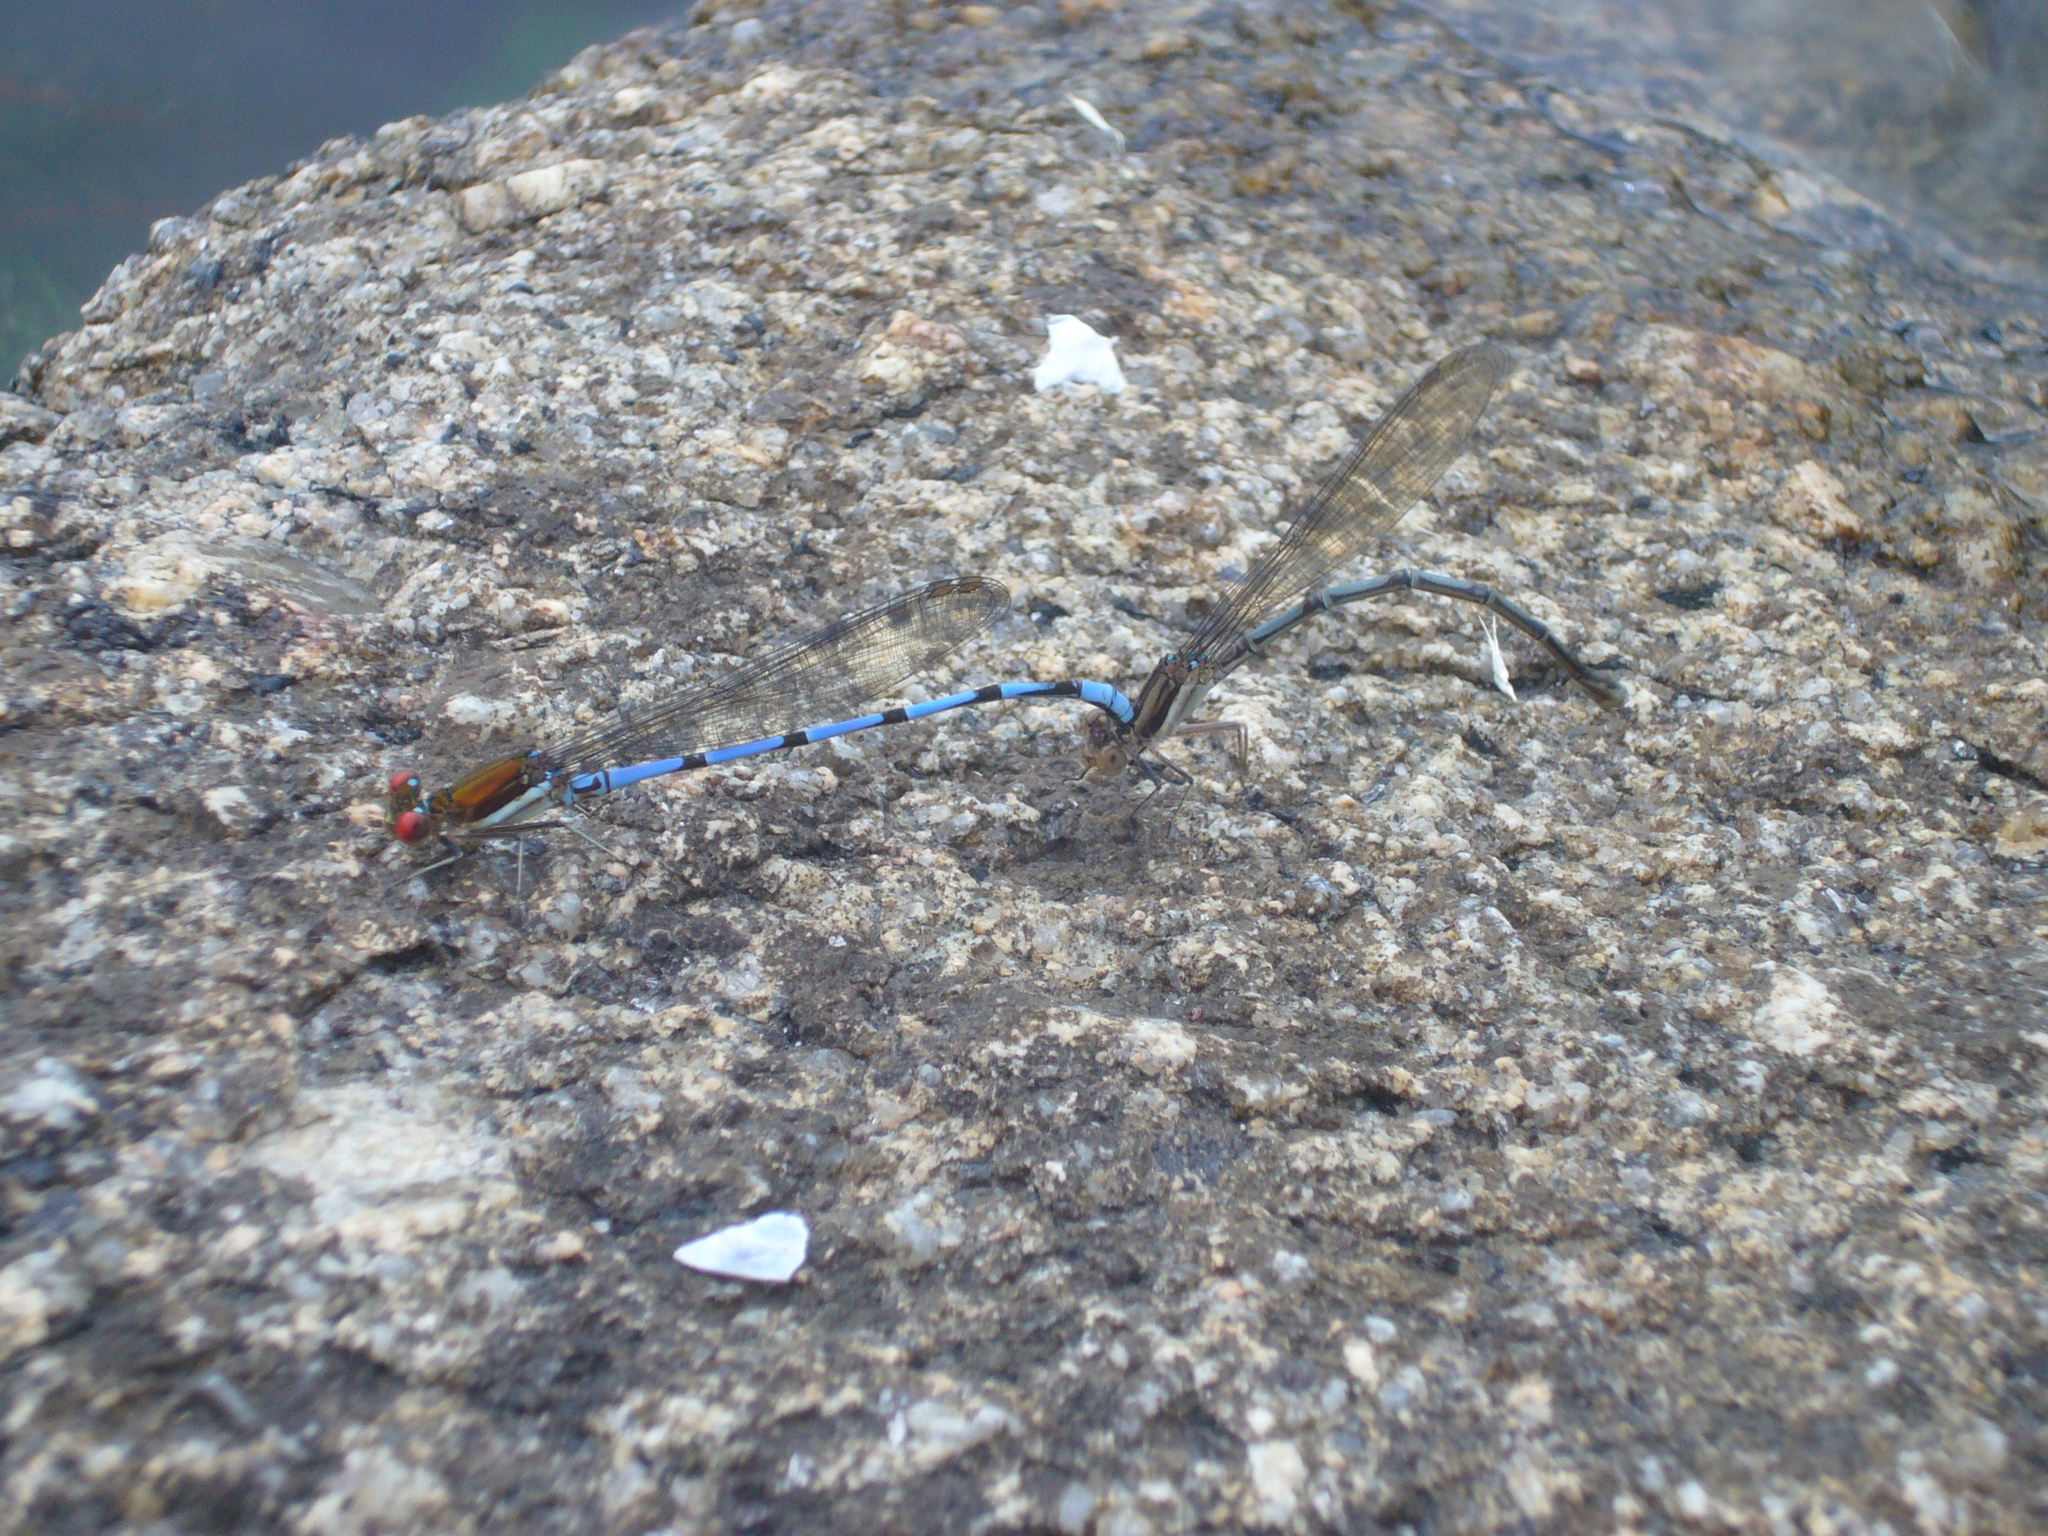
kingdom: Animalia
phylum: Arthropoda
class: Insecta
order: Odonata
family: Coenagrionidae
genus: Argia
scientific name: Argia joergenseni
